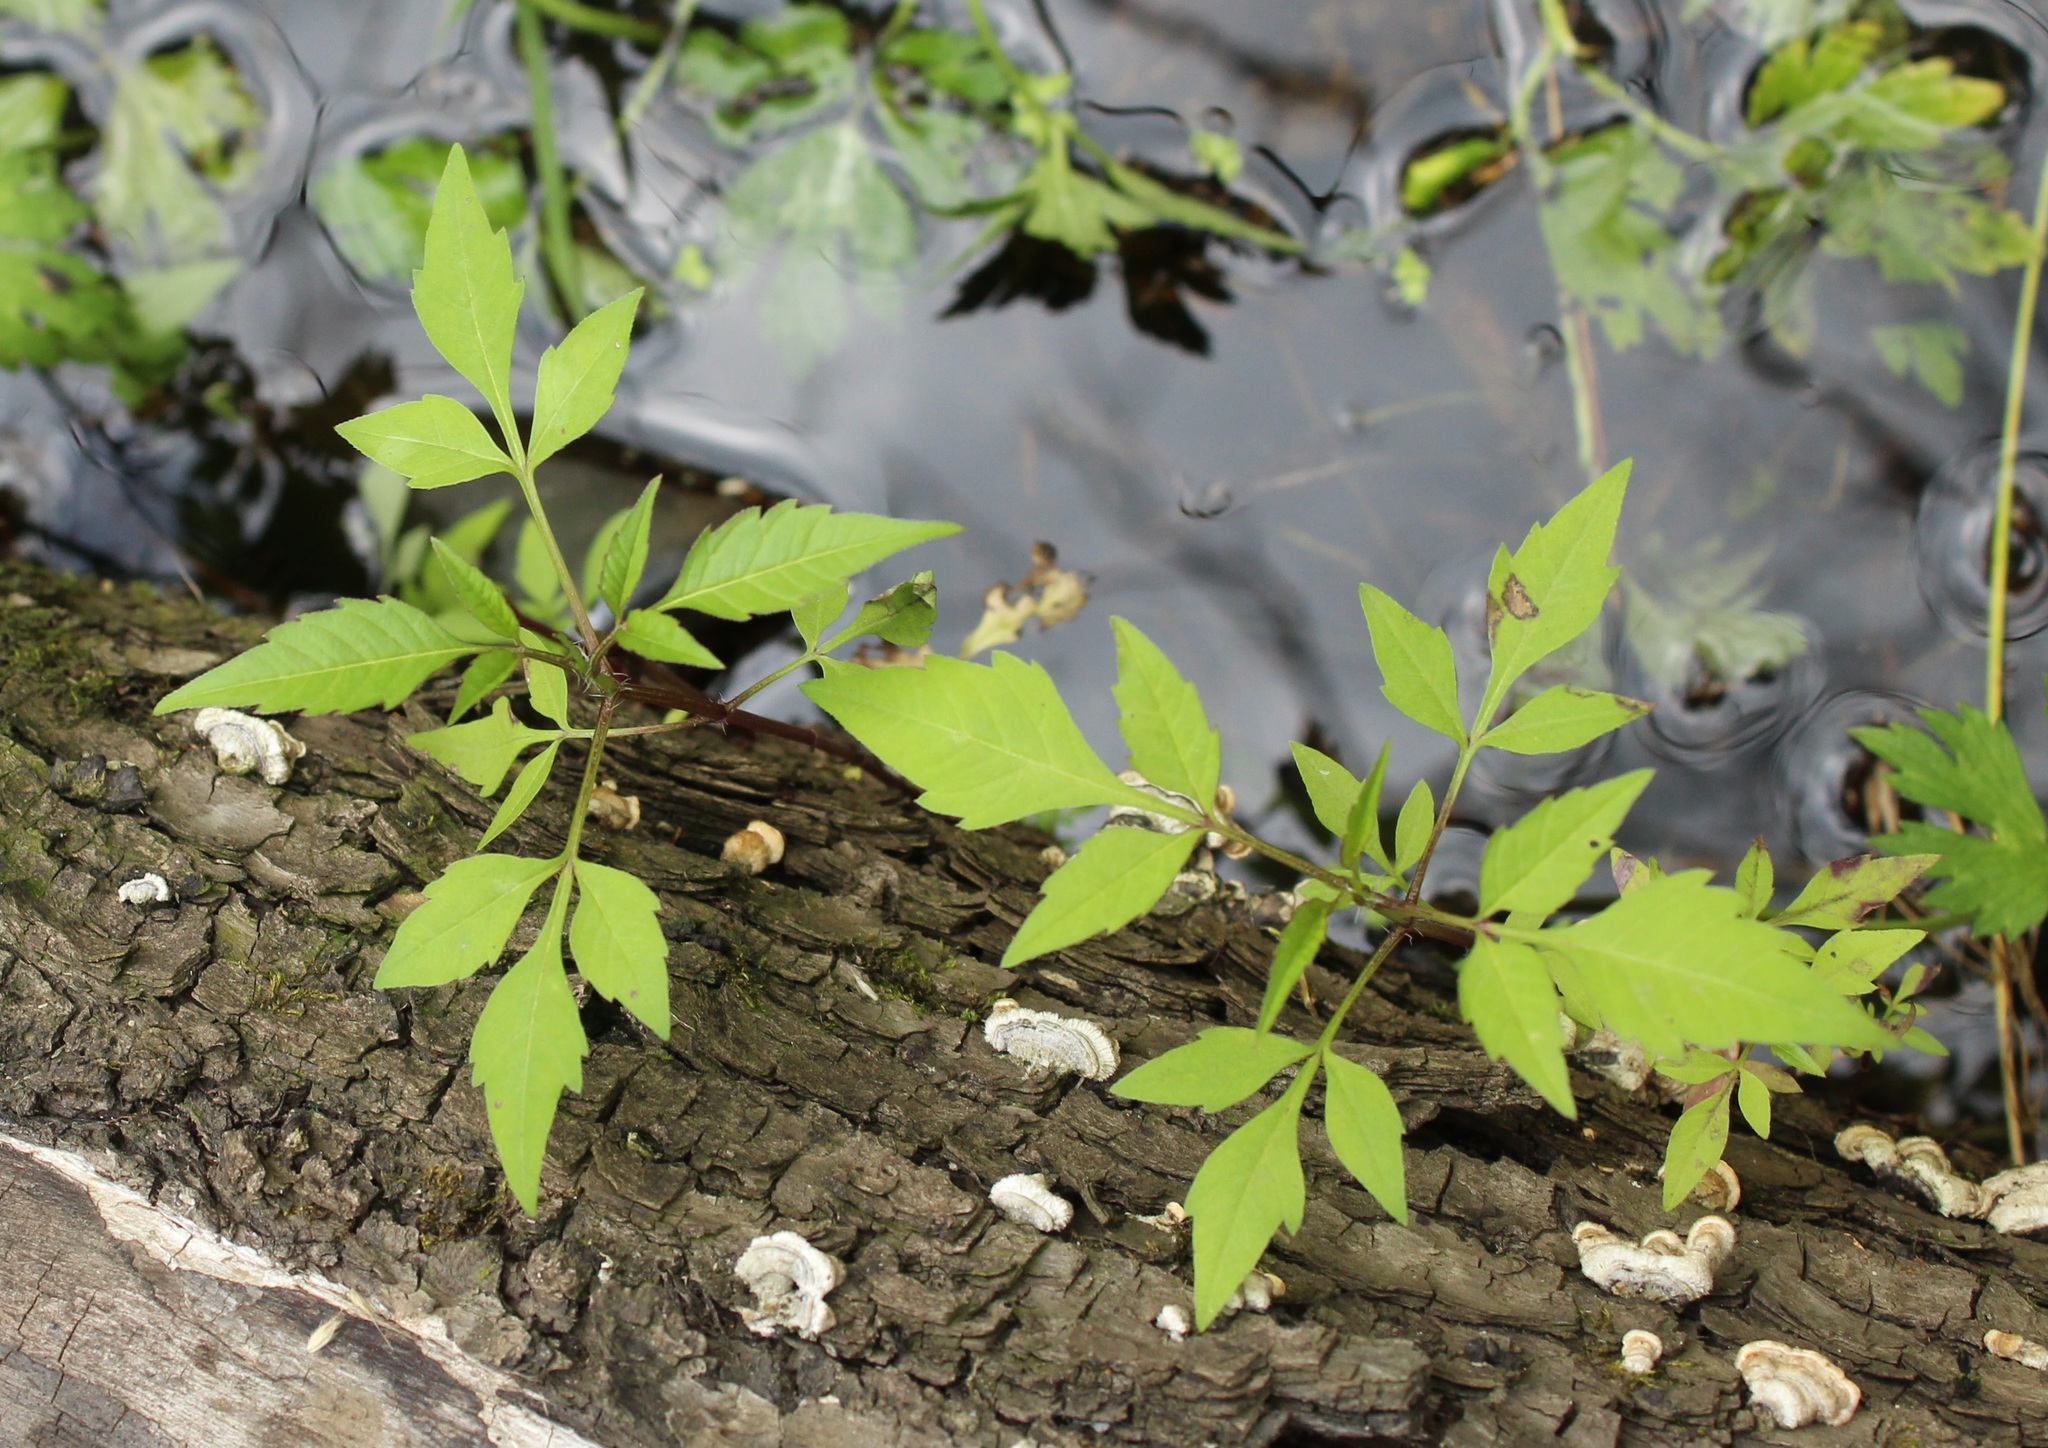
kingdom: Plantae
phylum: Tracheophyta
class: Magnoliopsida
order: Asterales
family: Asteraceae
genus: Bidens
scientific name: Bidens frondosa
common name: Beggarticks
